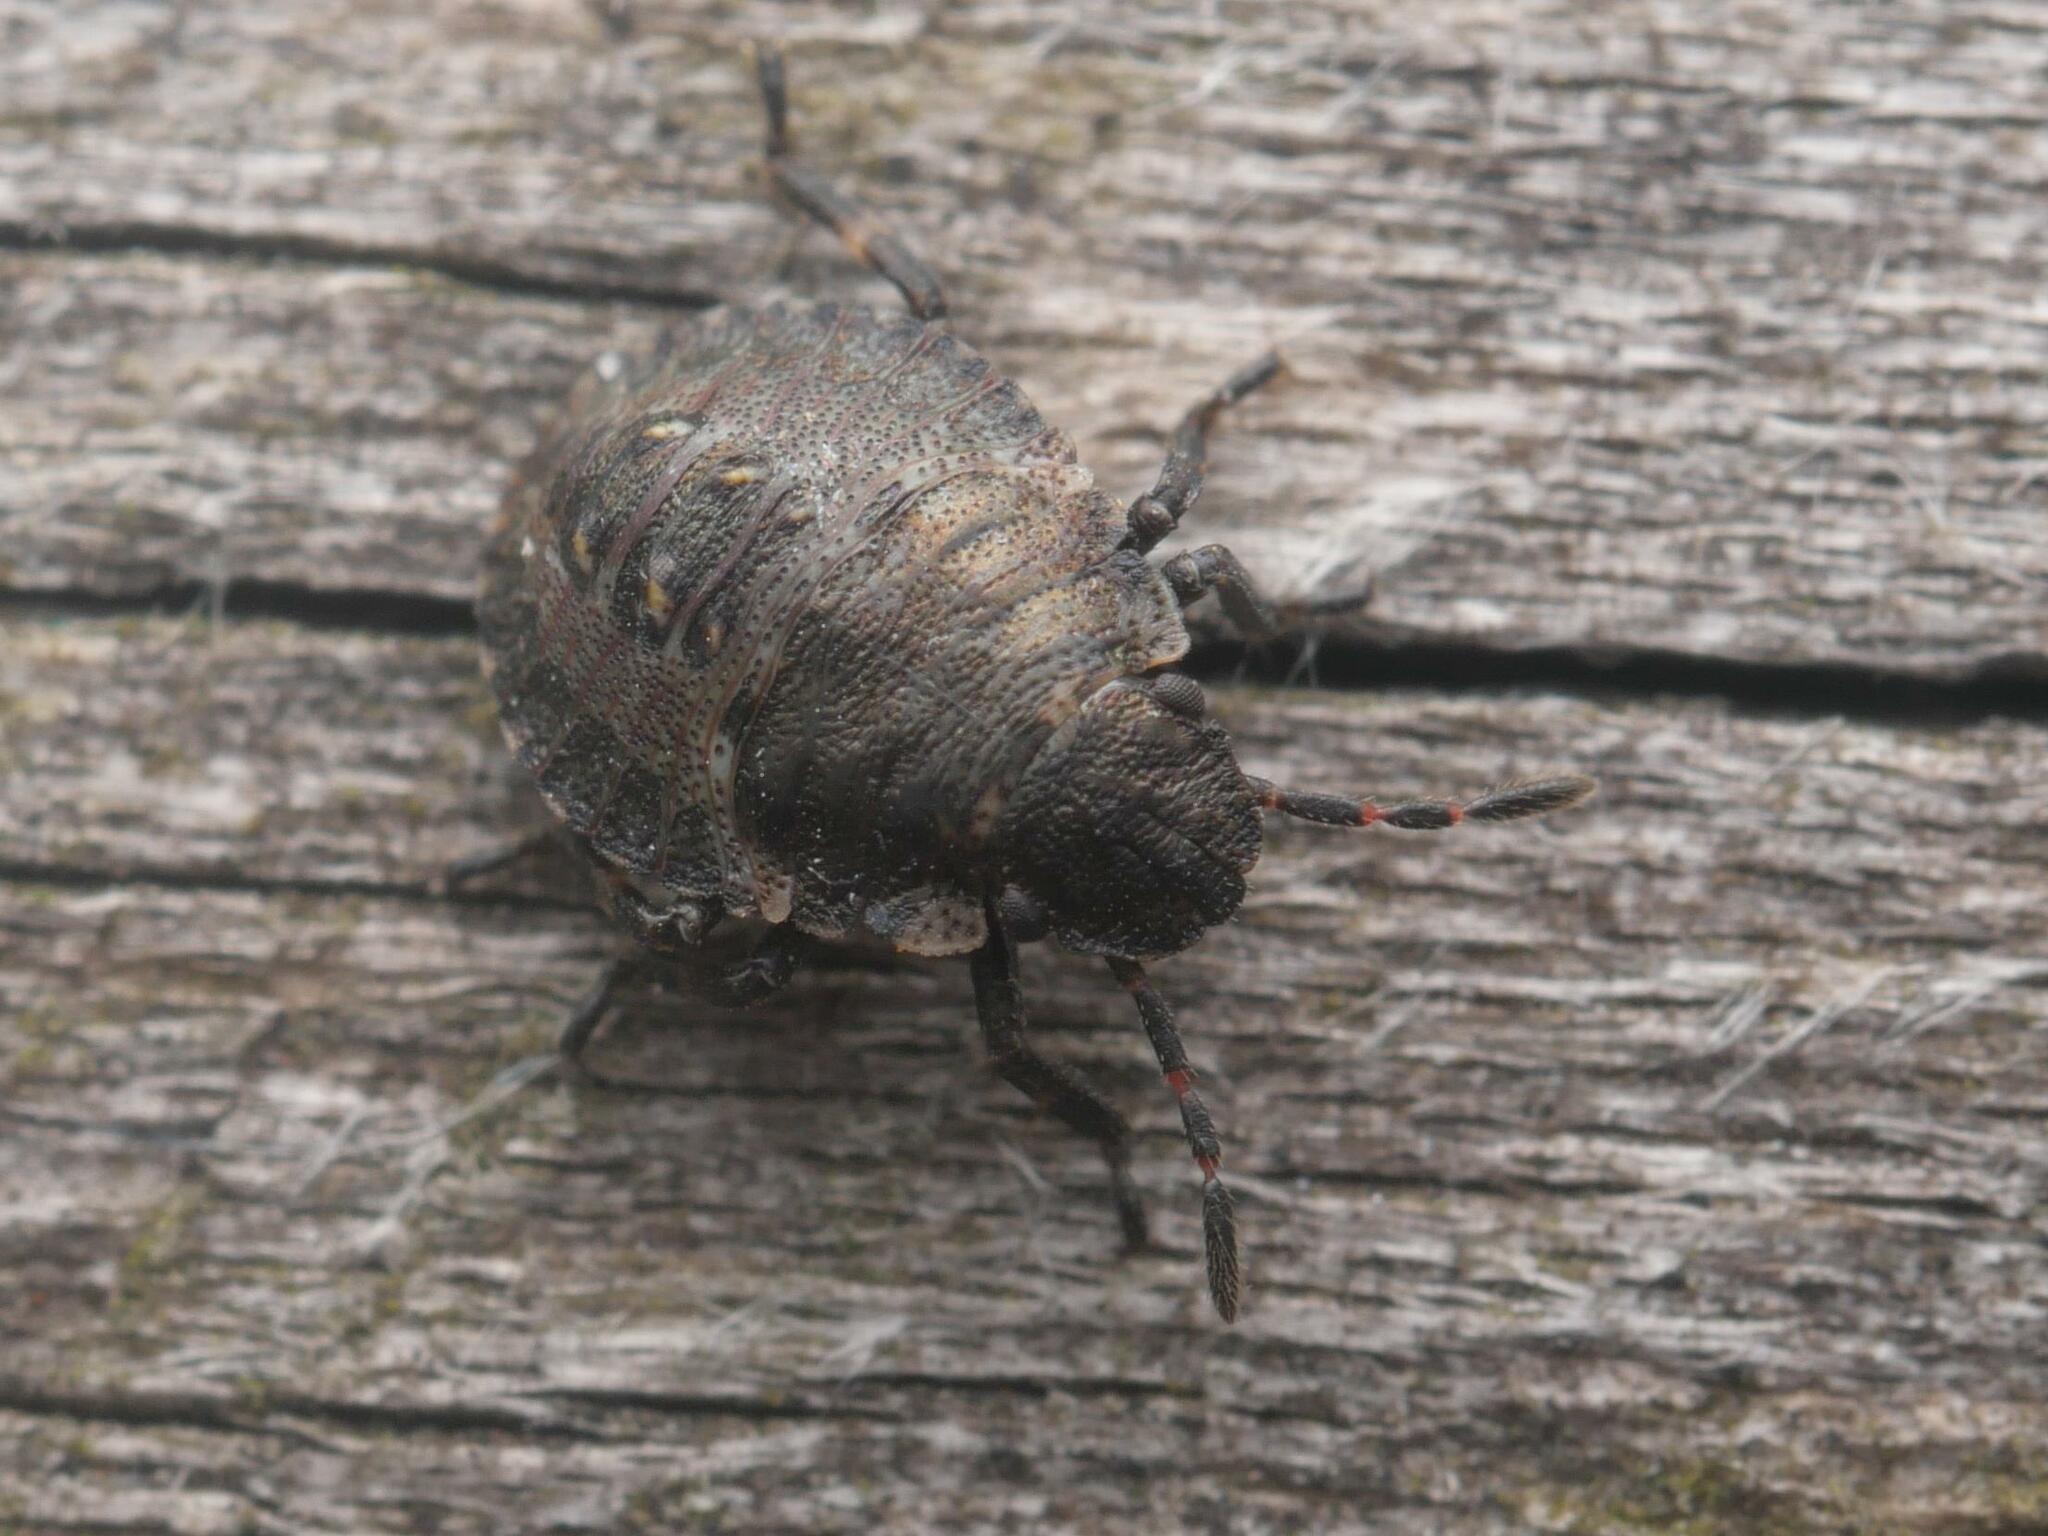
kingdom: Animalia
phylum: Arthropoda
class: Insecta
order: Hemiptera
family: Pentatomidae
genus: Pentatoma
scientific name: Pentatoma rufipes
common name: Forest bug
